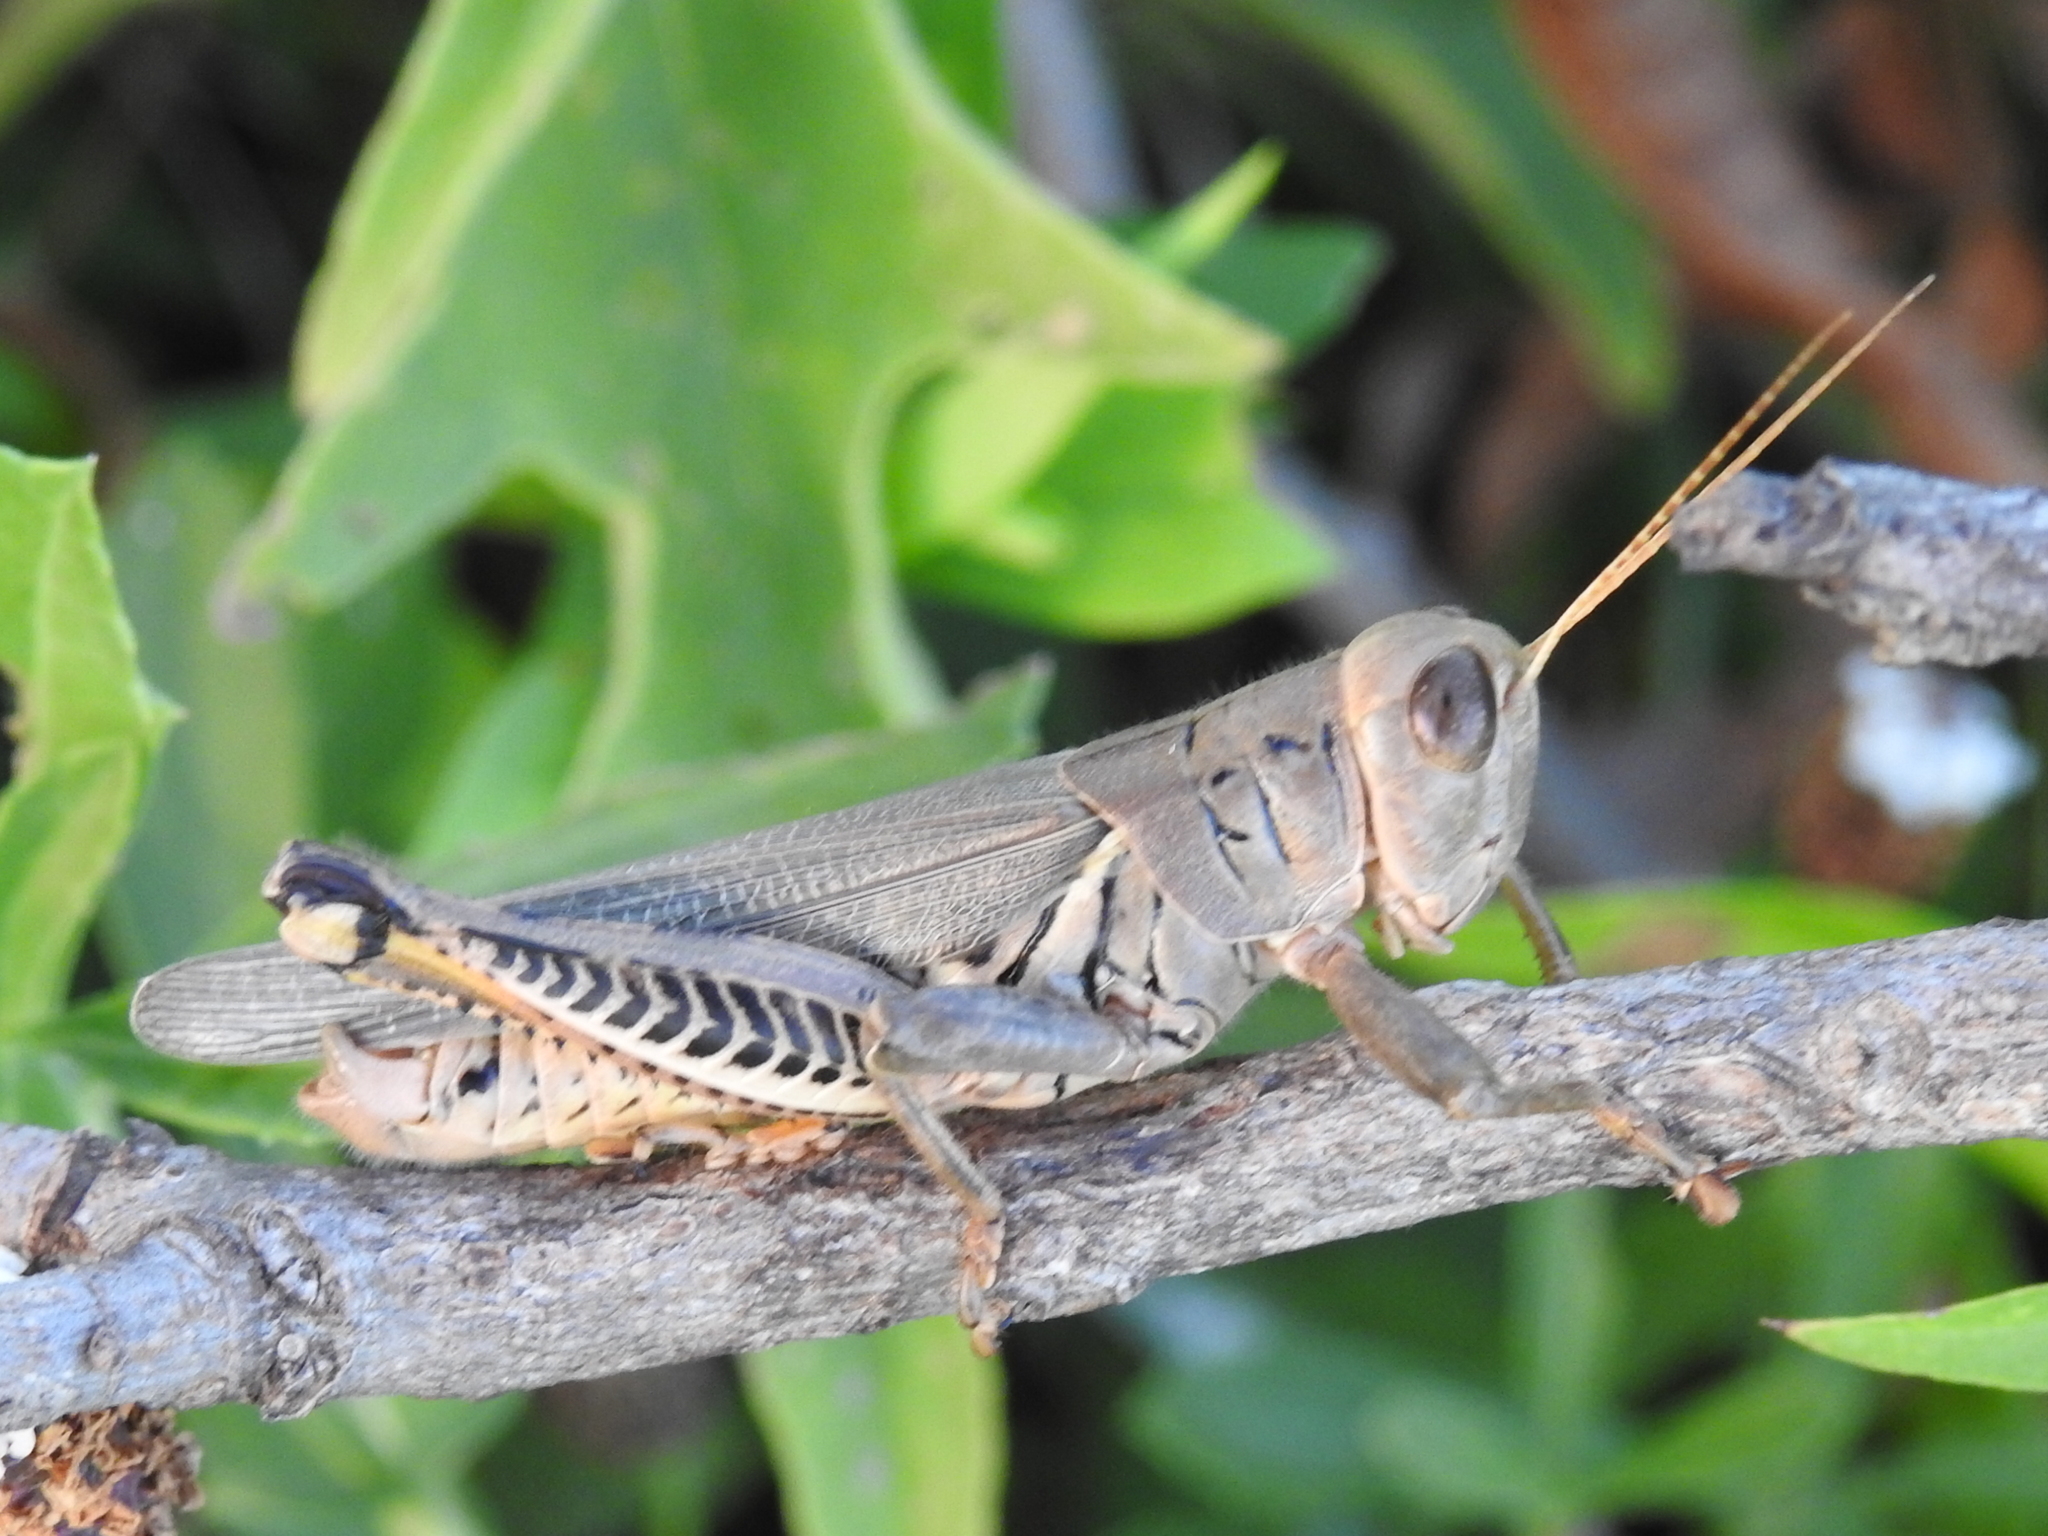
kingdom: Animalia
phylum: Arthropoda
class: Insecta
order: Orthoptera
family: Acrididae
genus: Melanoplus
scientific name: Melanoplus differentialis
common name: Differential grasshopper
